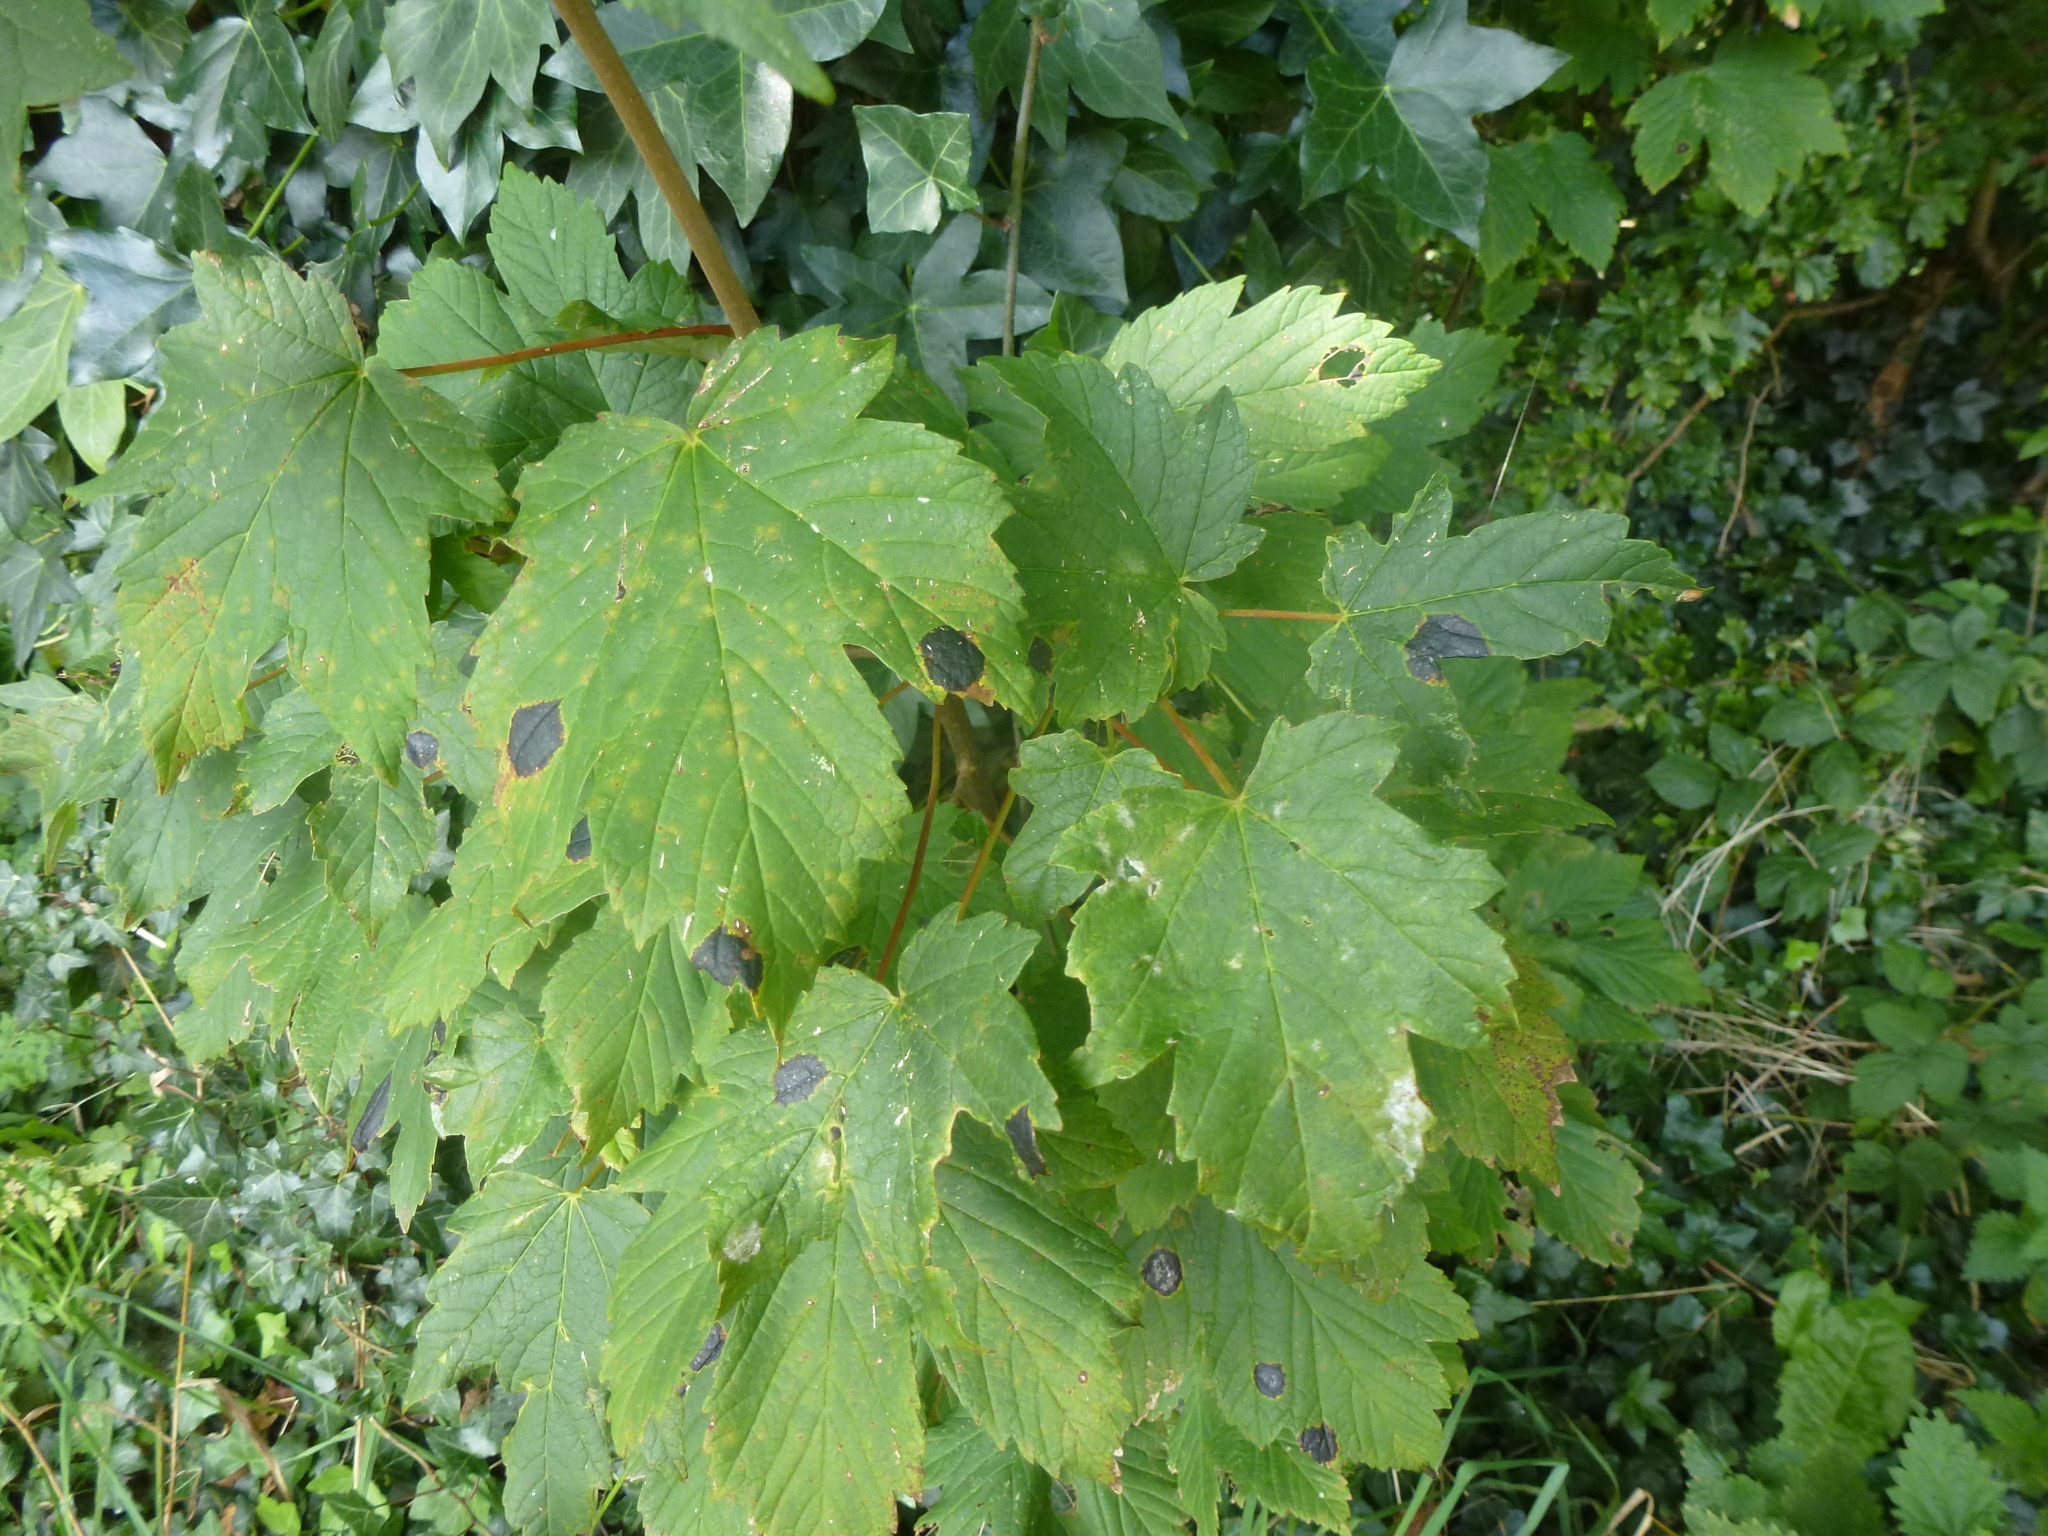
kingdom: Fungi
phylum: Ascomycota
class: Leotiomycetes
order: Rhytismatales
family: Rhytismataceae
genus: Rhytisma
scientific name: Rhytisma acerinum
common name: European tar spot
